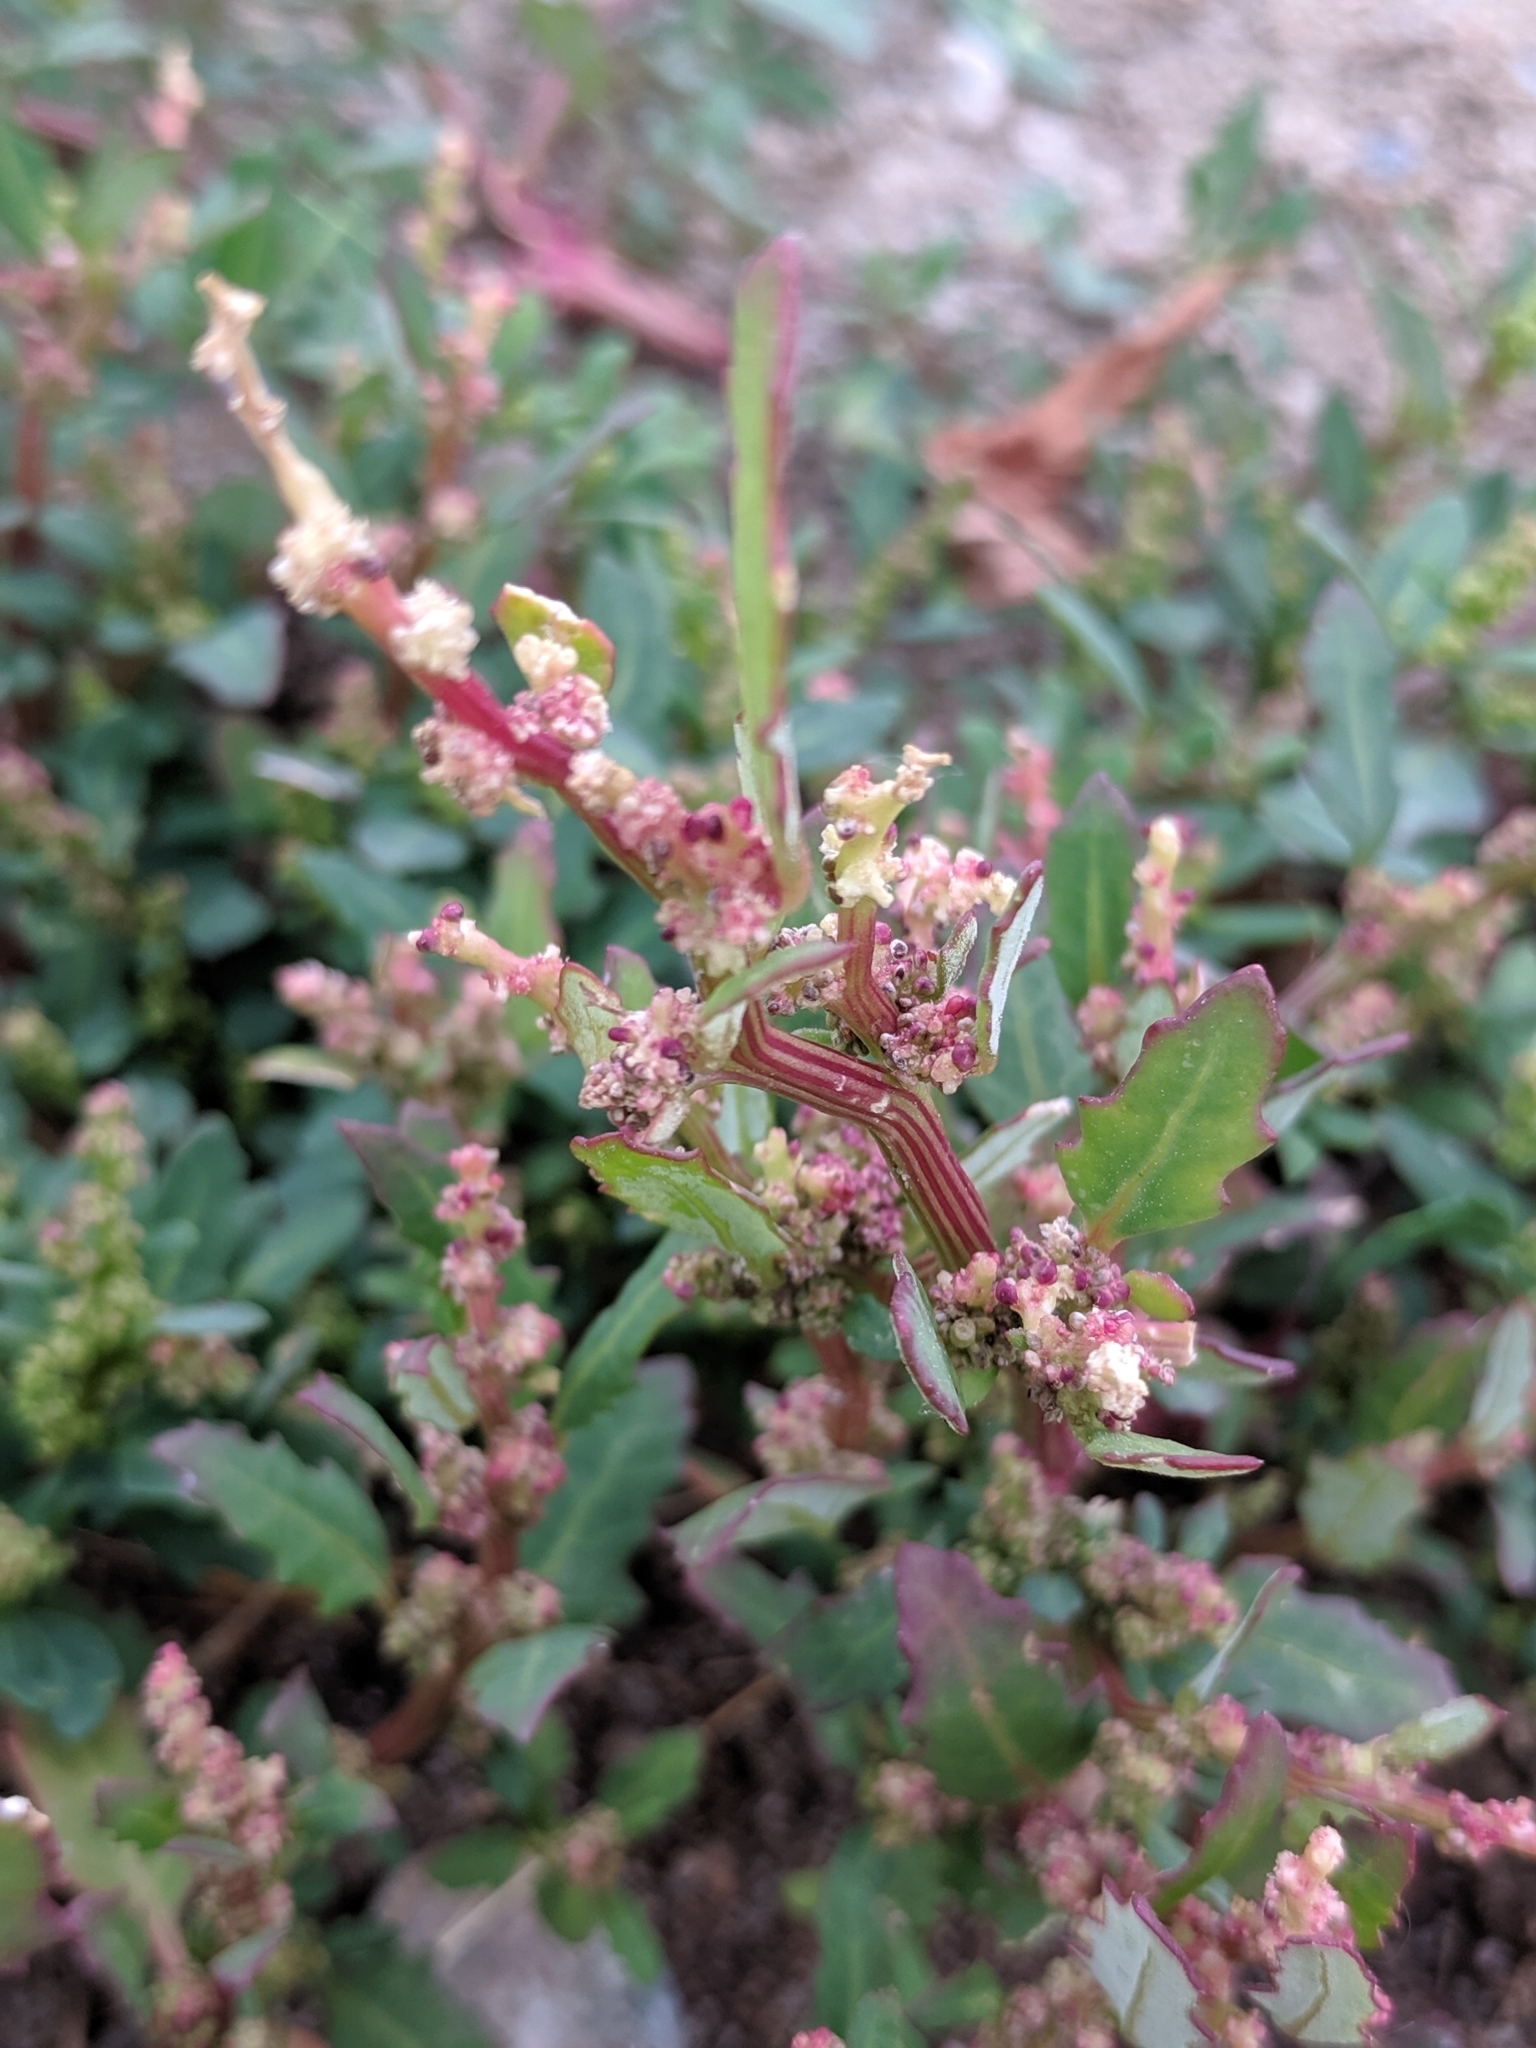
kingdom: Plantae
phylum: Tracheophyta
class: Magnoliopsida
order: Caryophyllales
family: Amaranthaceae
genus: Oxybasis
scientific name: Oxybasis glauca
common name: Glaucous goosefoot
